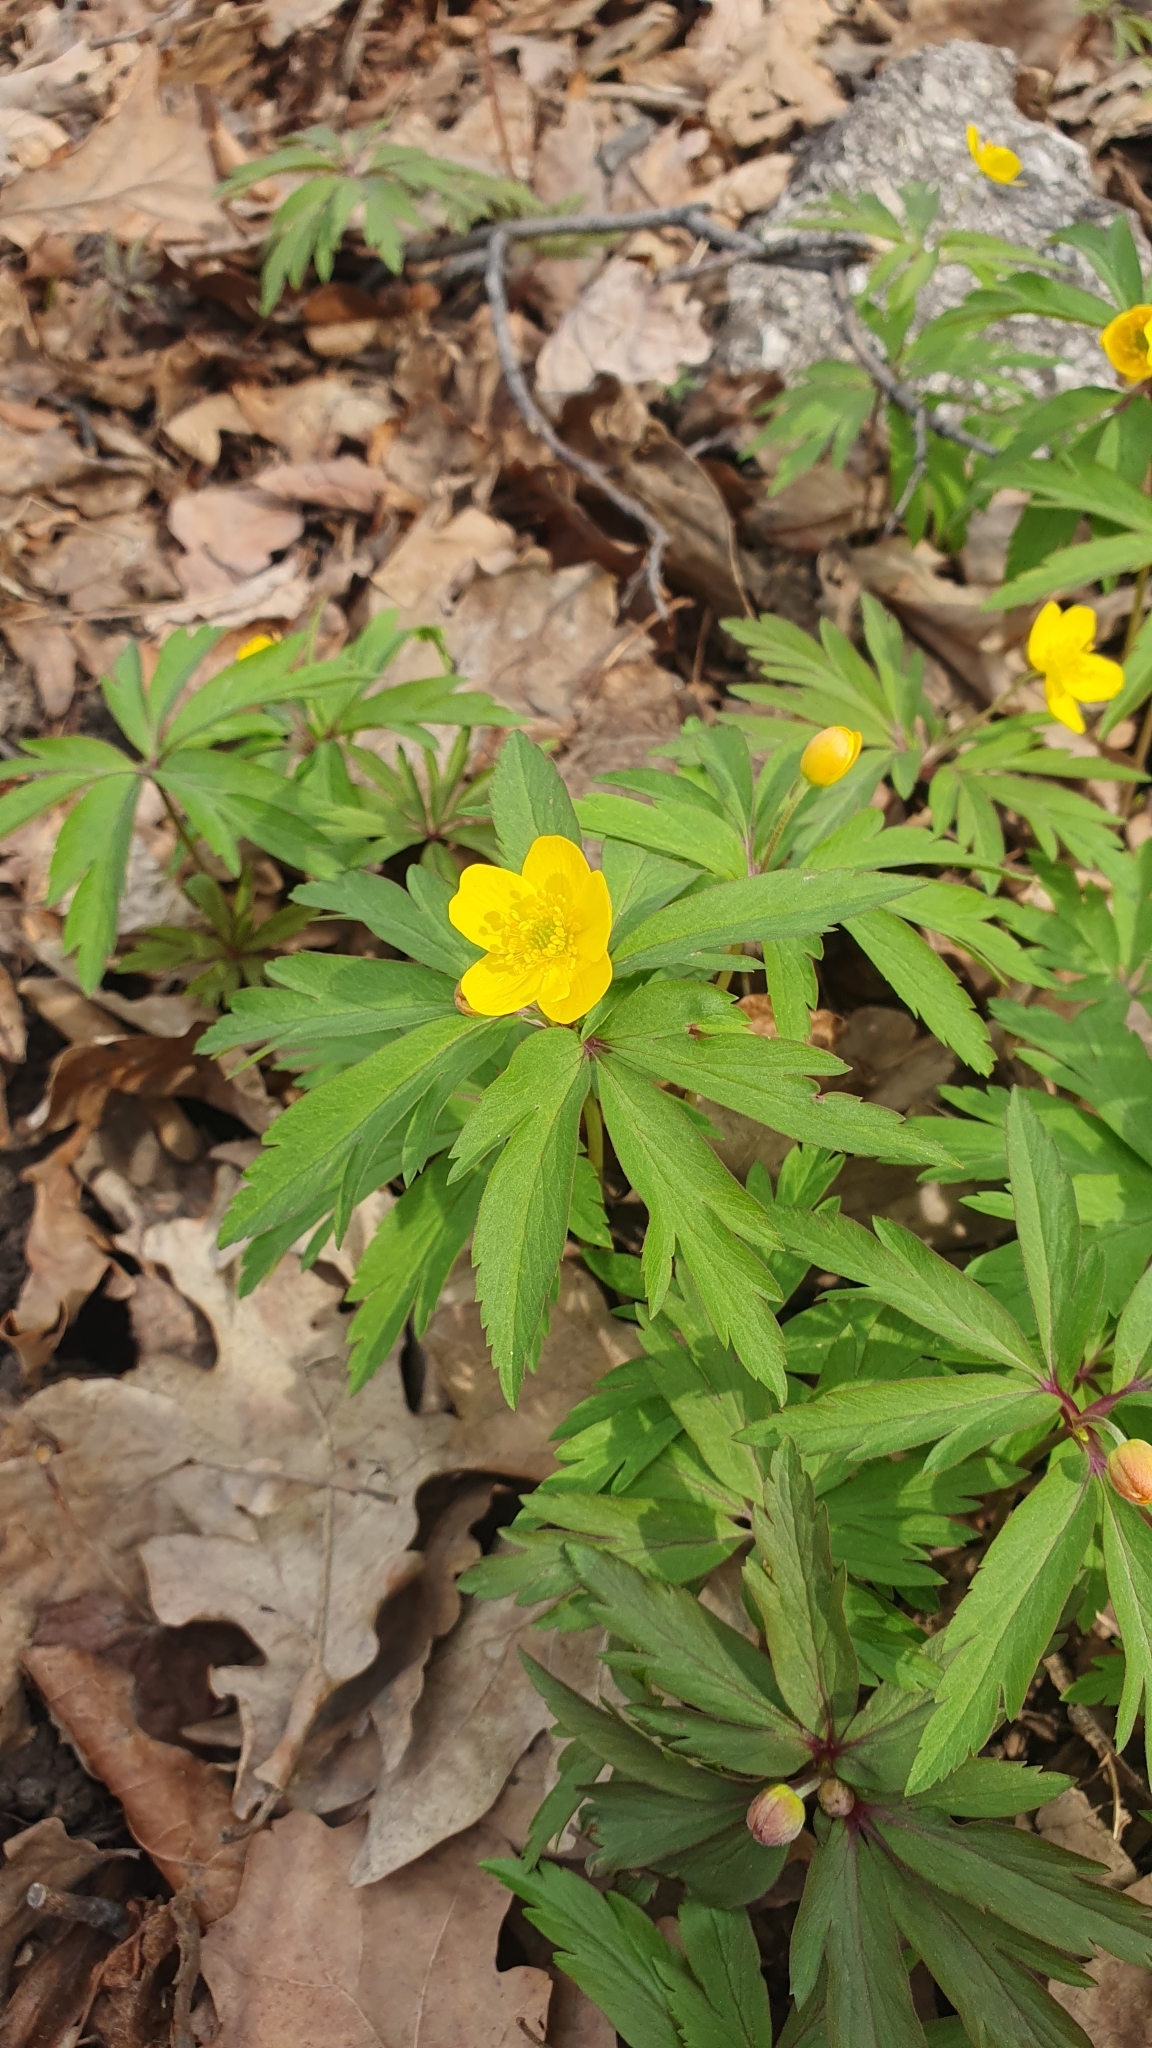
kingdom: Plantae
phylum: Tracheophyta
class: Magnoliopsida
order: Ranunculales
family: Ranunculaceae
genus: Anemone
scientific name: Anemone ranunculoides
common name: Yellow anemone
